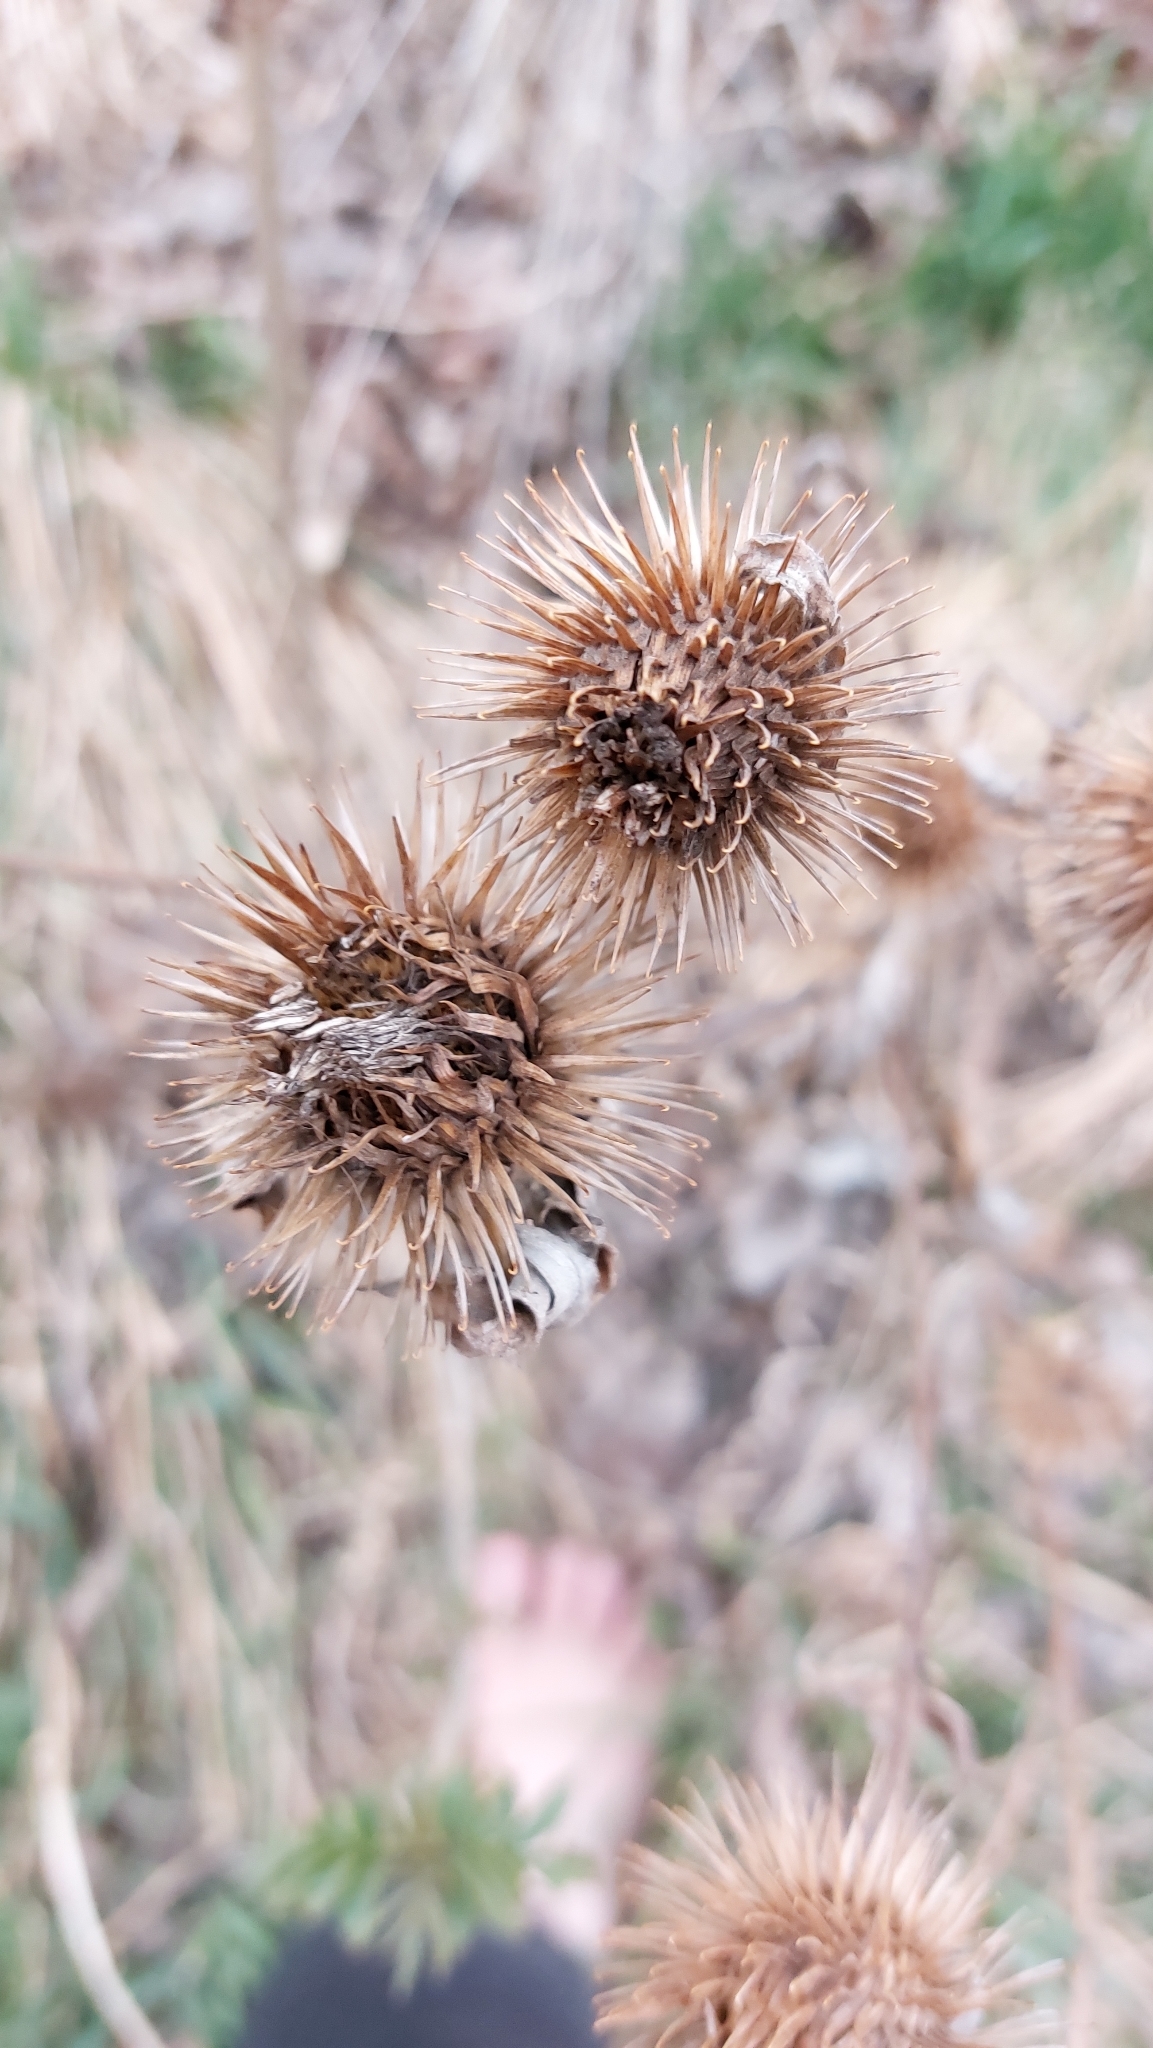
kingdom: Plantae
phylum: Tracheophyta
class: Magnoliopsida
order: Asterales
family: Asteraceae
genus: Arctium
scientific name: Arctium
